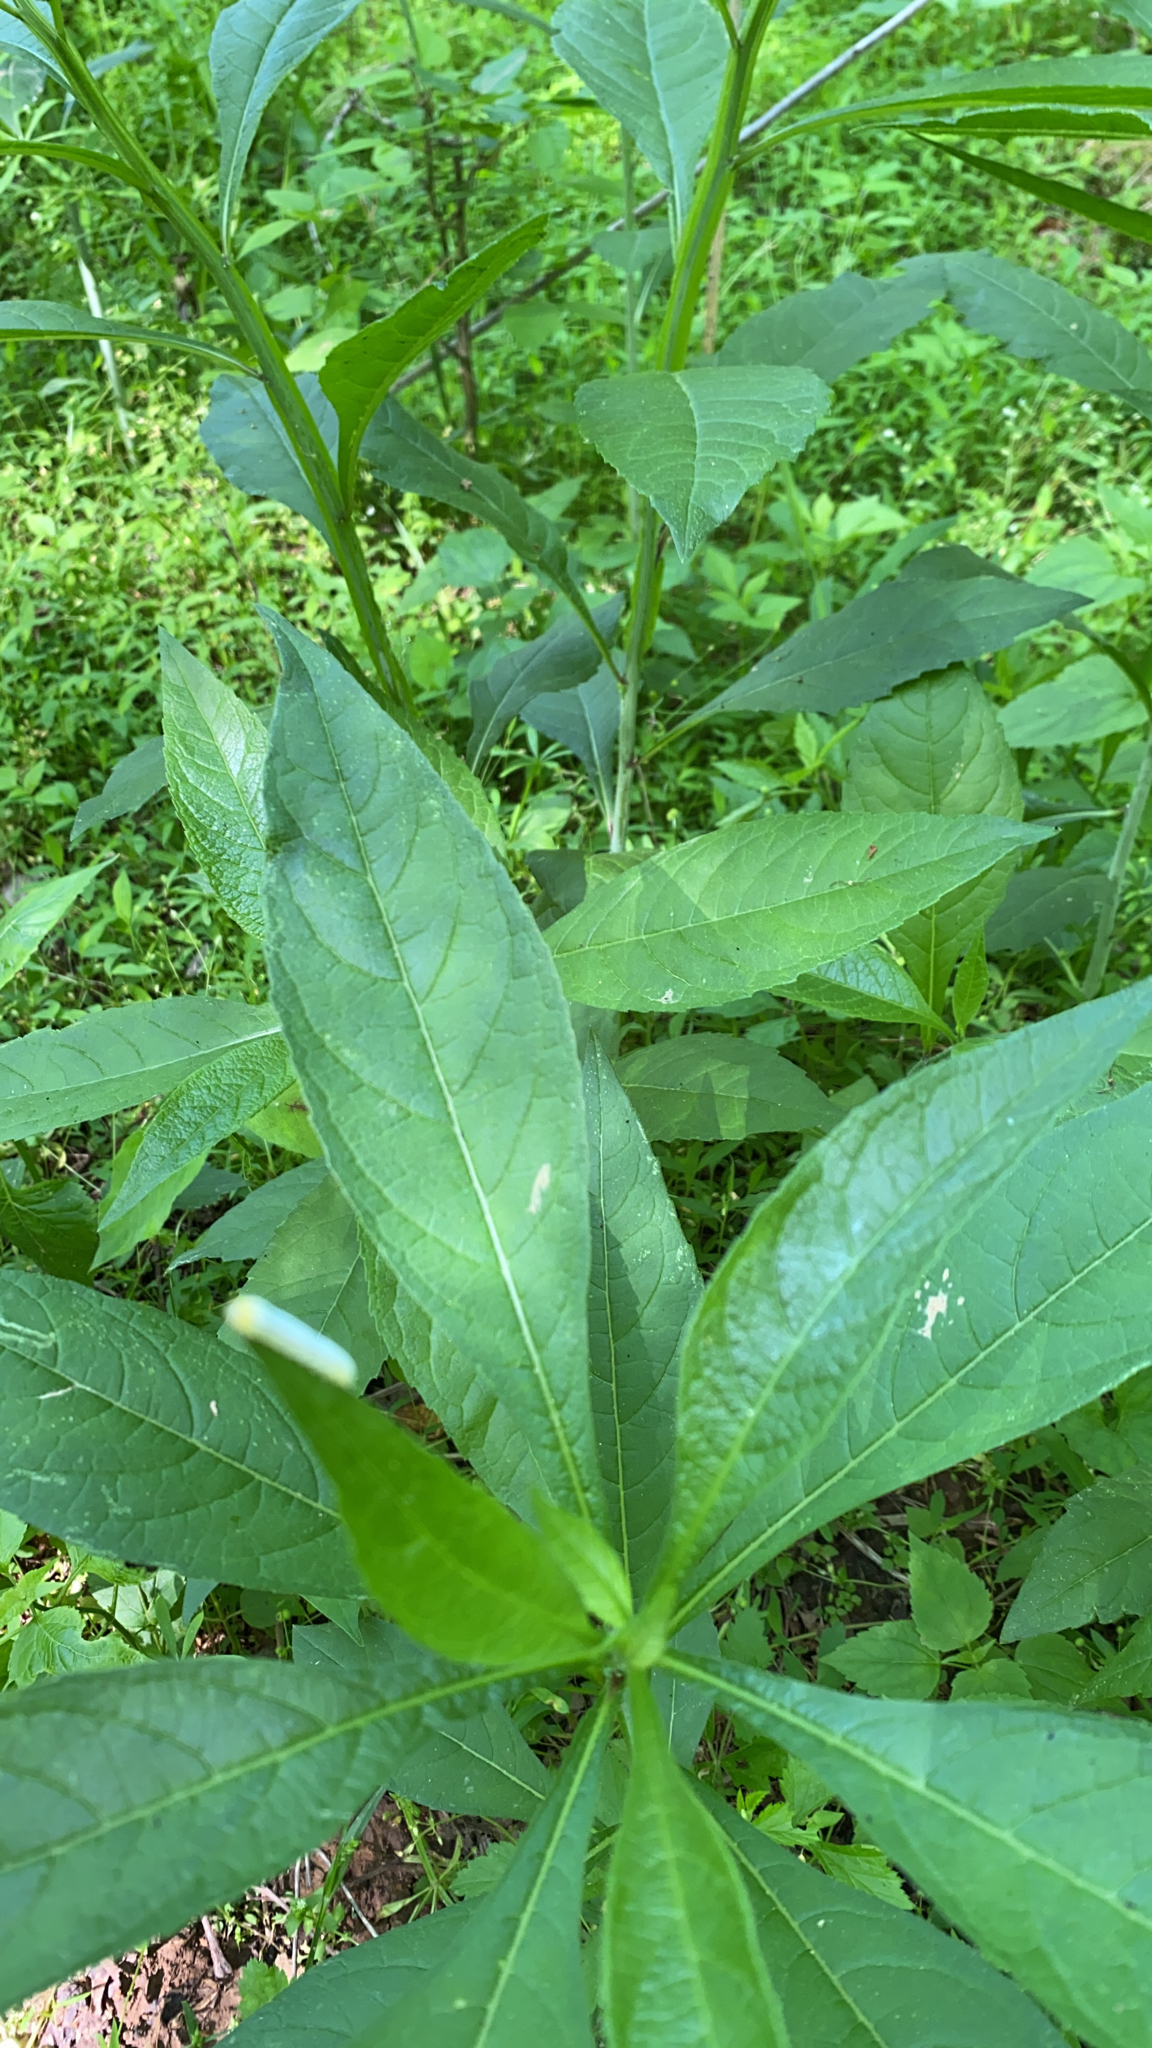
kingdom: Plantae
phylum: Tracheophyta
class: Magnoliopsida
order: Asterales
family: Asteraceae
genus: Verbesina
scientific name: Verbesina alternifolia
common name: Wingstem
